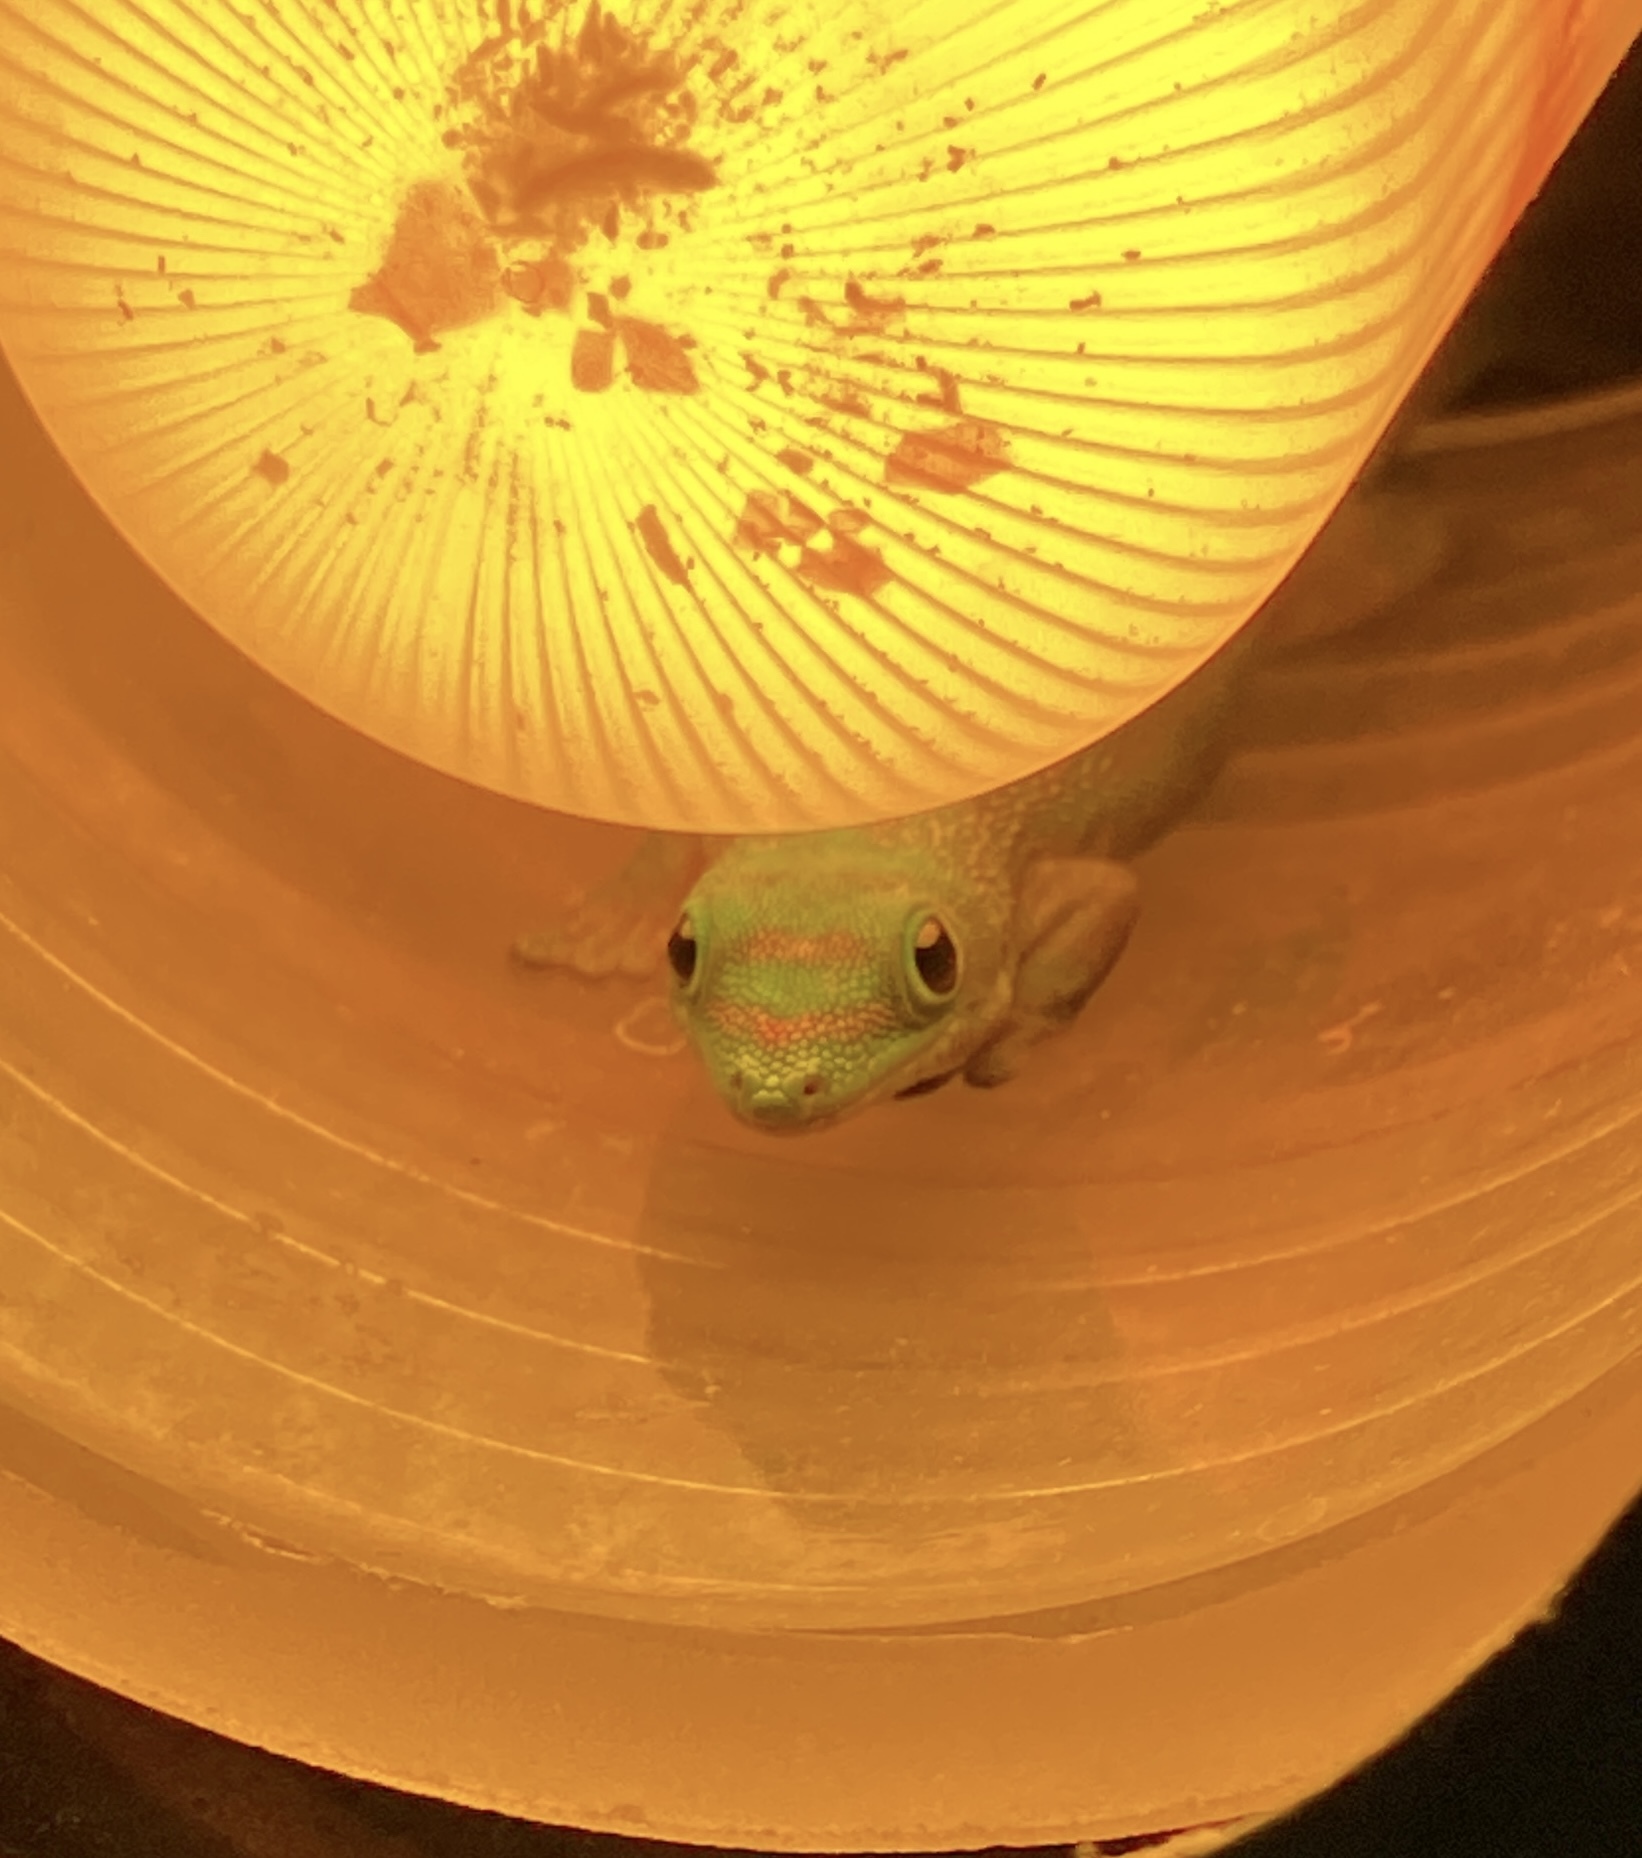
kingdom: Animalia
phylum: Chordata
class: Squamata
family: Gekkonidae
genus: Phelsuma
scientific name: Phelsuma laticauda
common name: Gold dust day gecko
